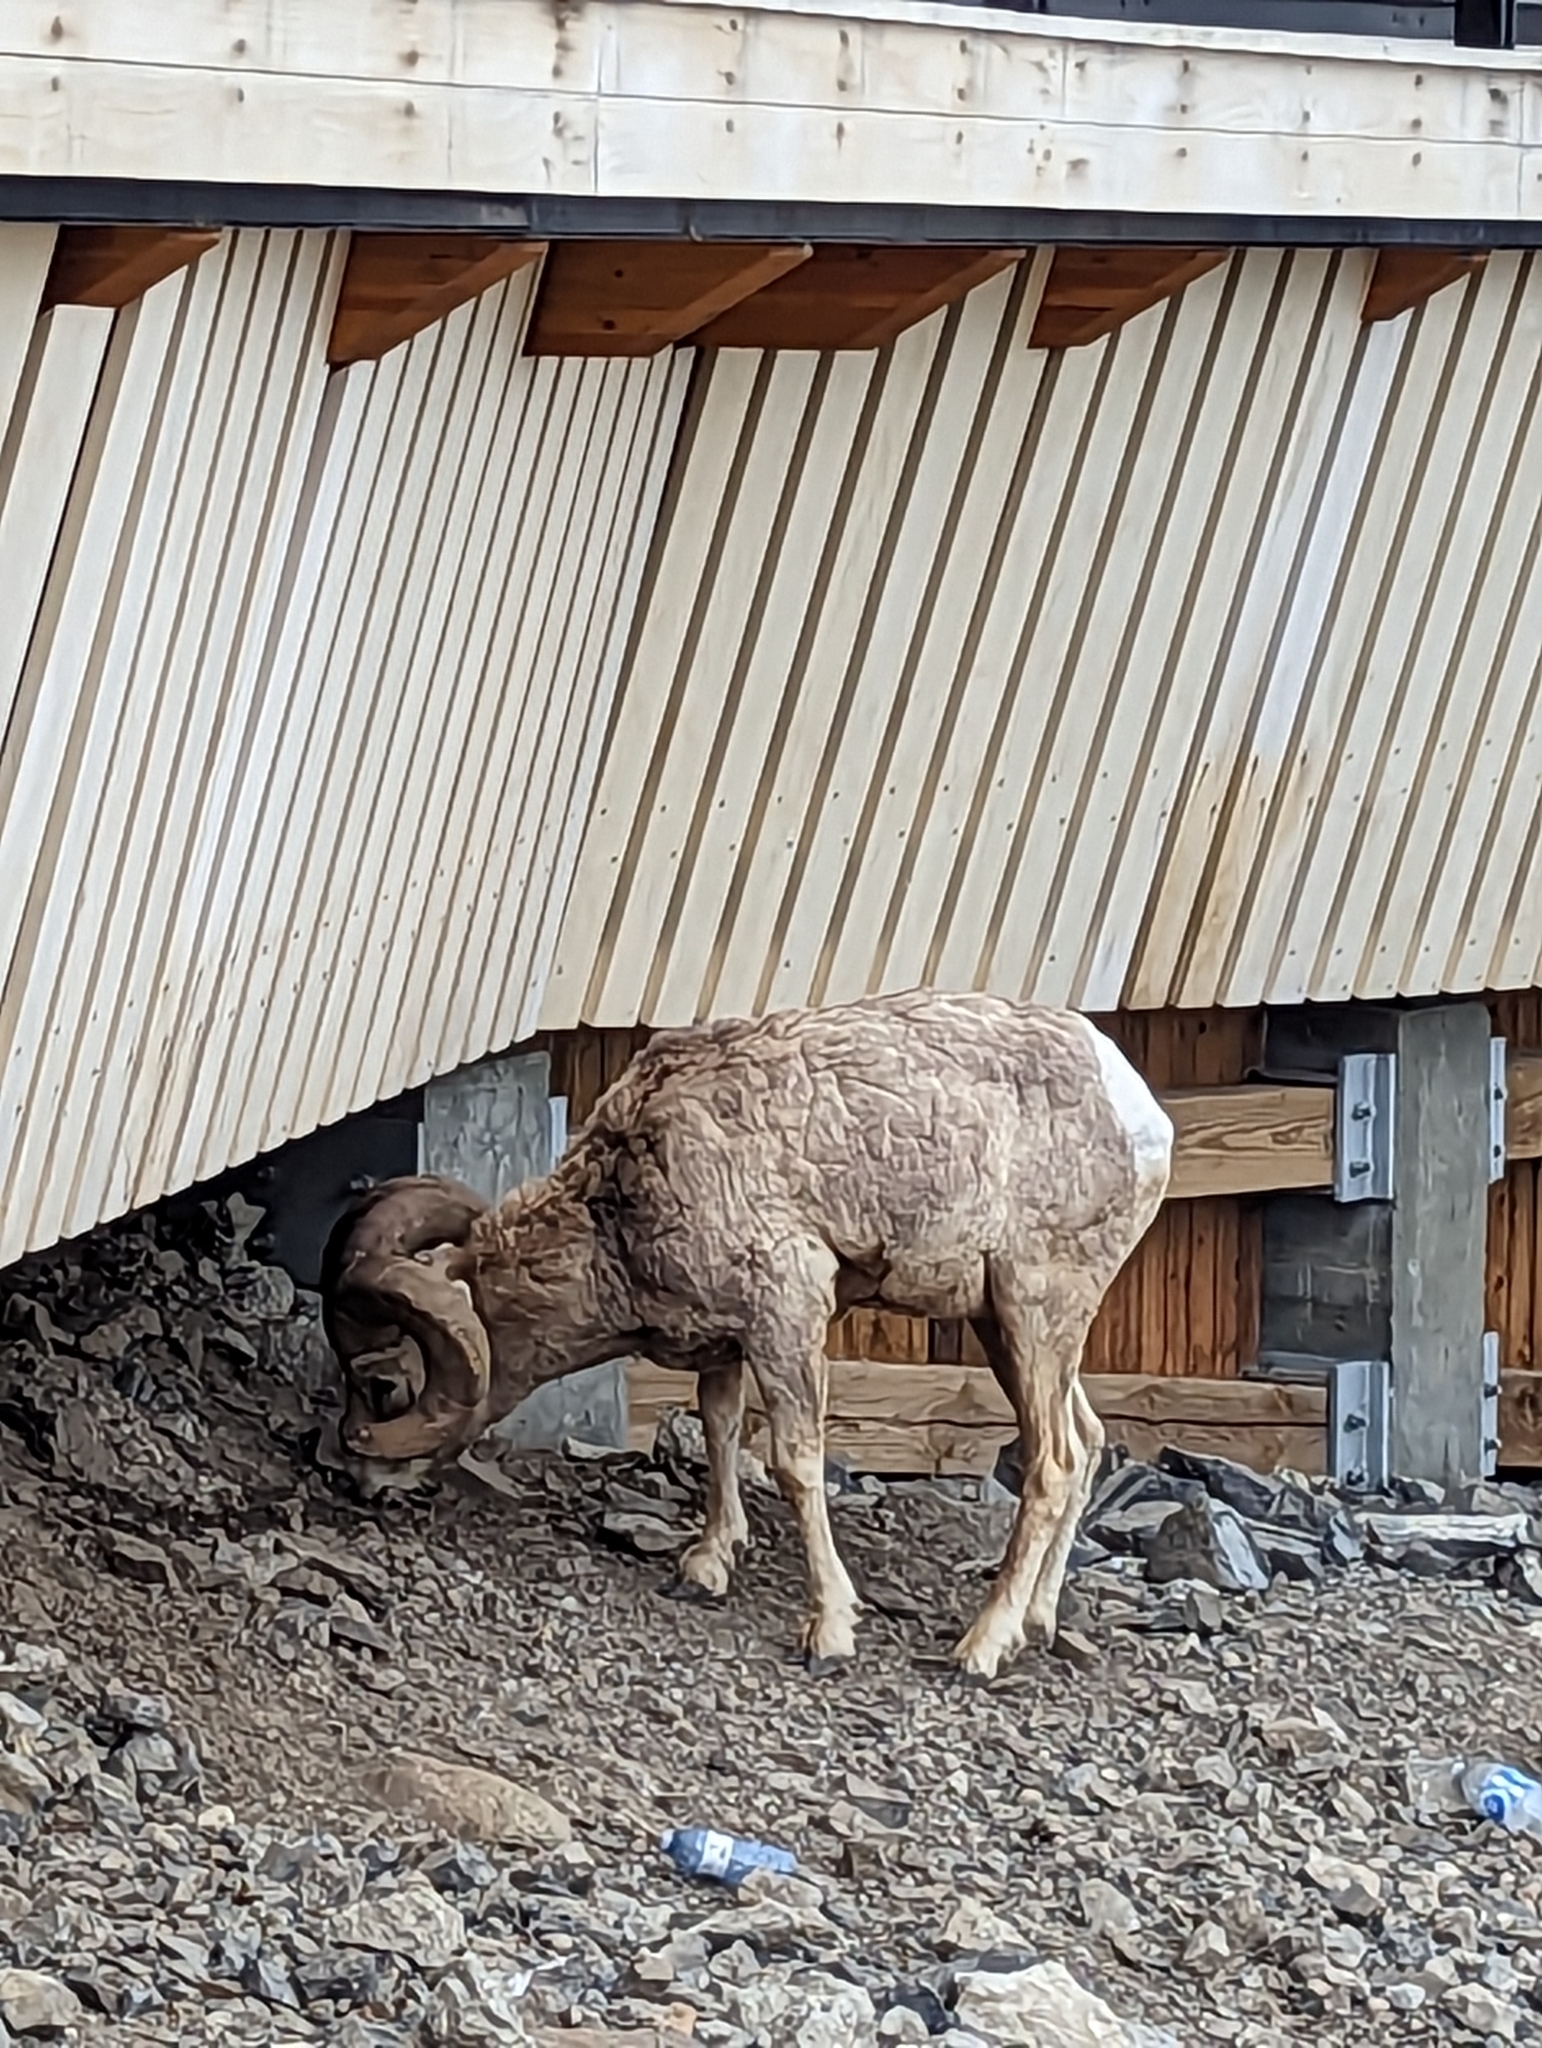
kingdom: Animalia
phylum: Chordata
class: Mammalia
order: Artiodactyla
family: Bovidae
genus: Ovis
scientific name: Ovis canadensis
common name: Bighorn sheep
